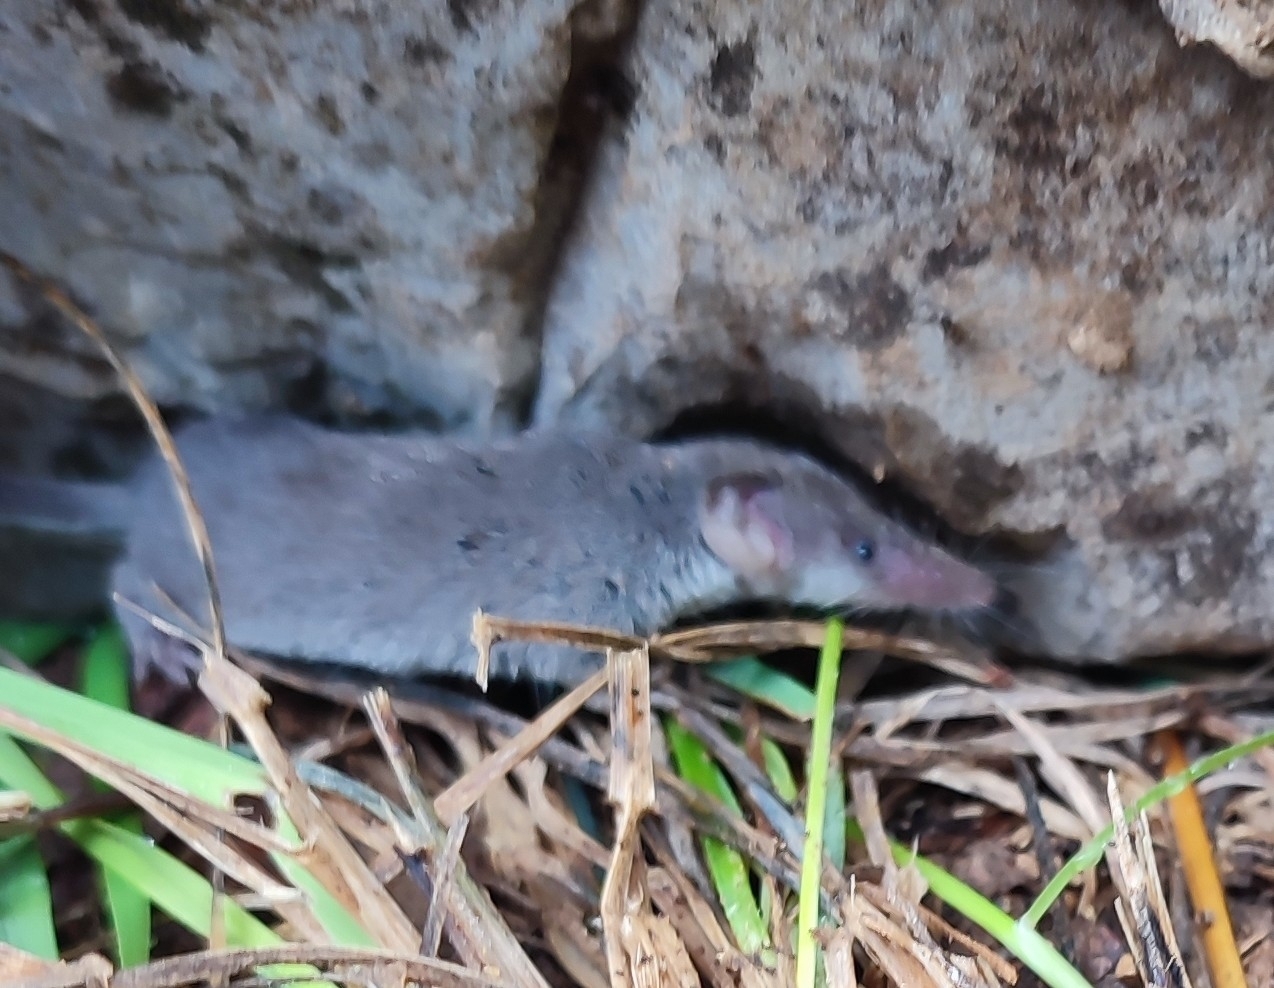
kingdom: Animalia
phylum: Chordata
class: Mammalia
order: Soricomorpha
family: Soricidae
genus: Suncus
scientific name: Suncus etruscus
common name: Etruscan shrew
